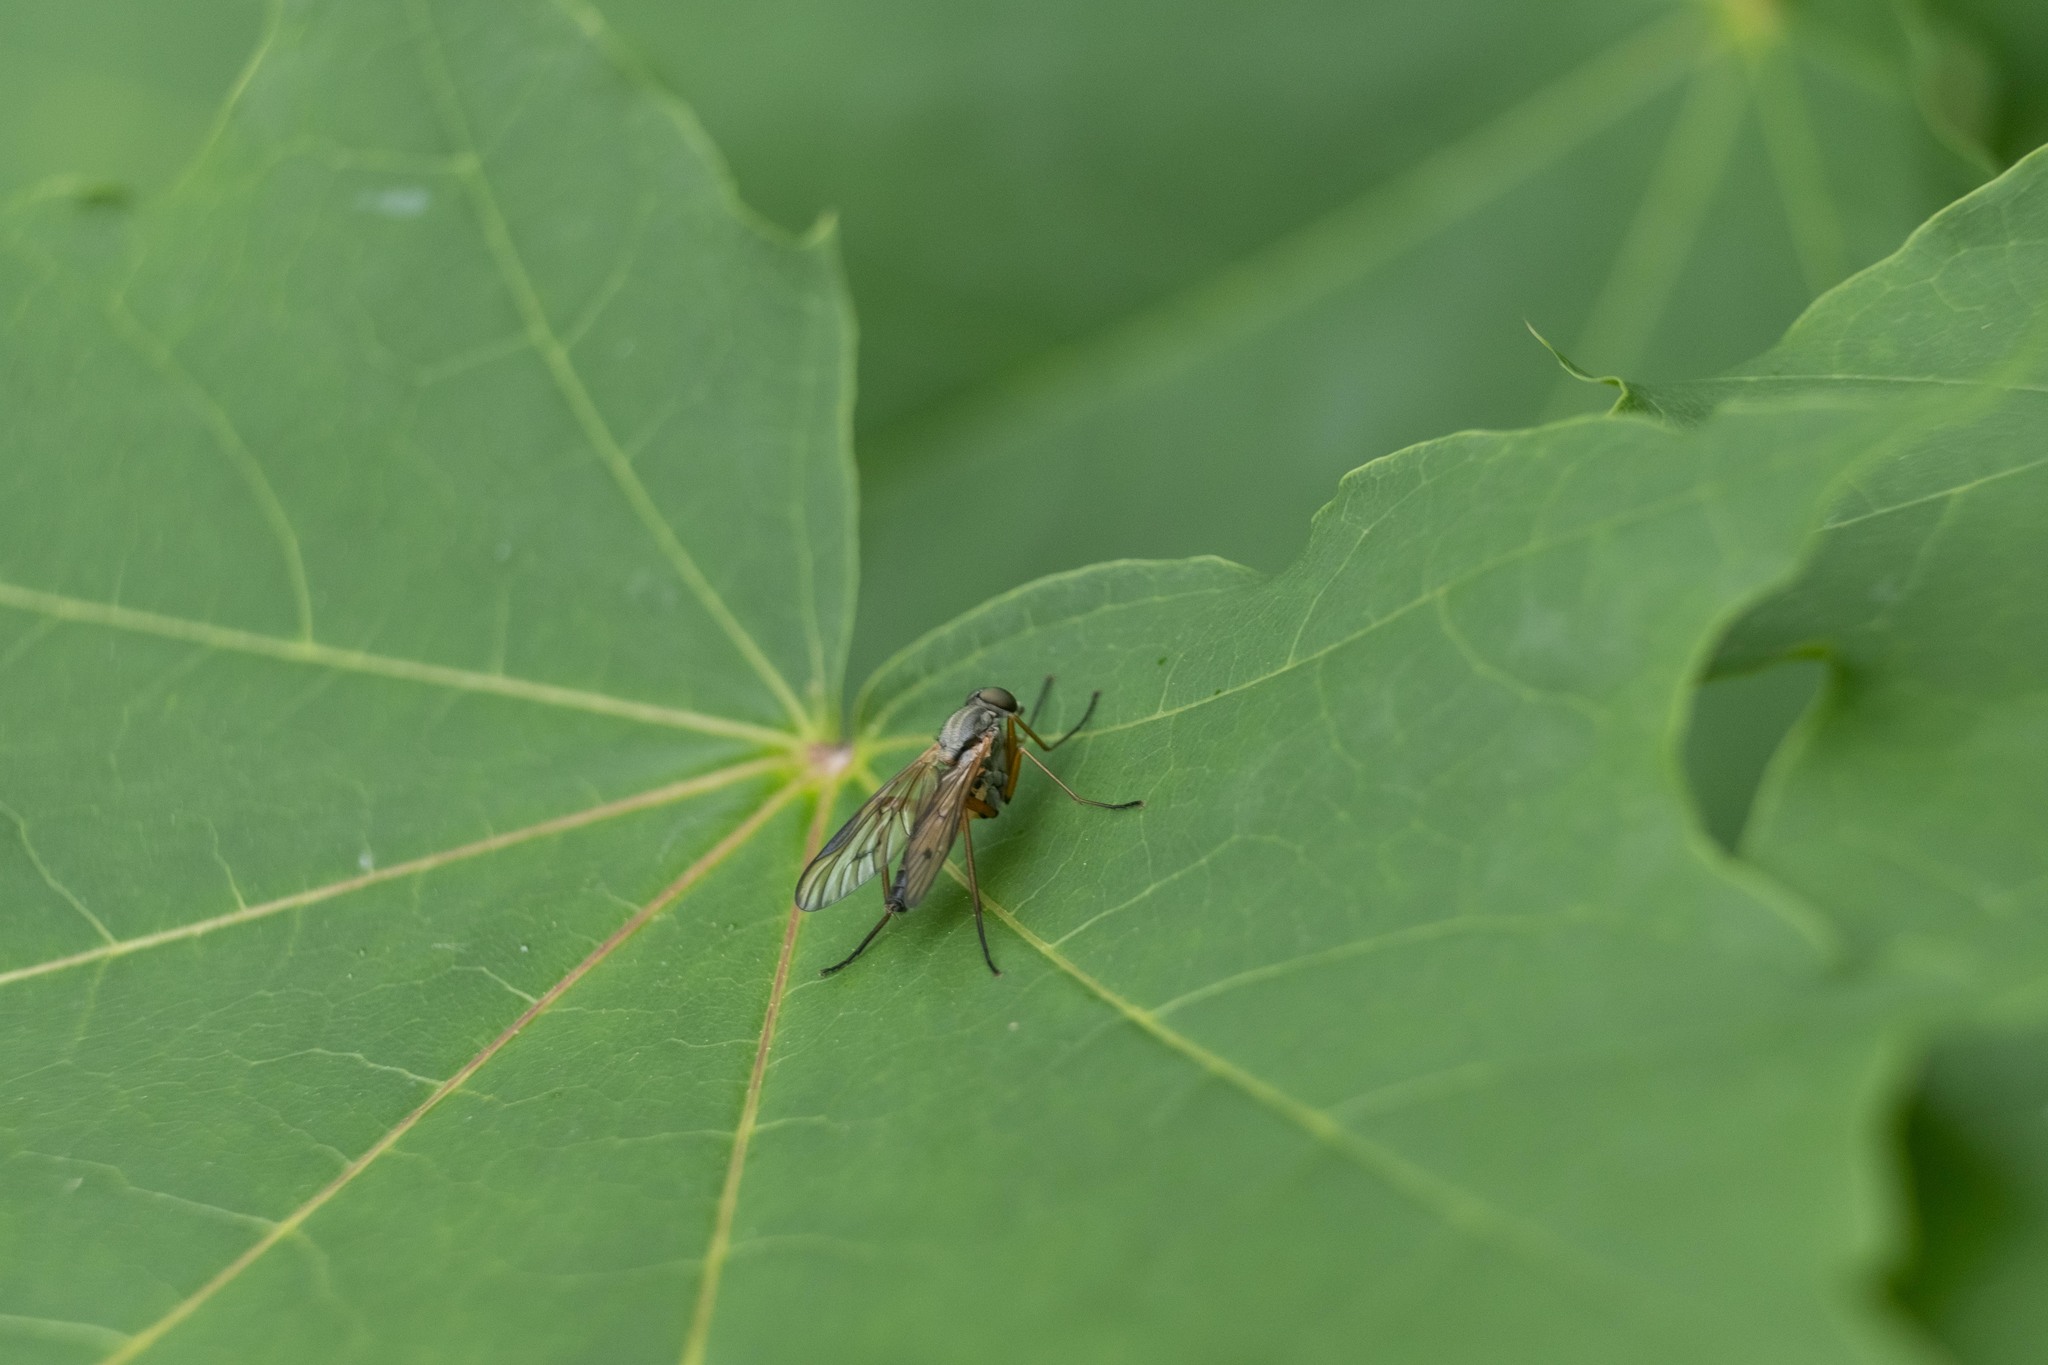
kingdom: Animalia
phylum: Arthropoda
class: Insecta
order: Diptera
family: Rhagionidae
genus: Rhagio
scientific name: Rhagio vitripennis
